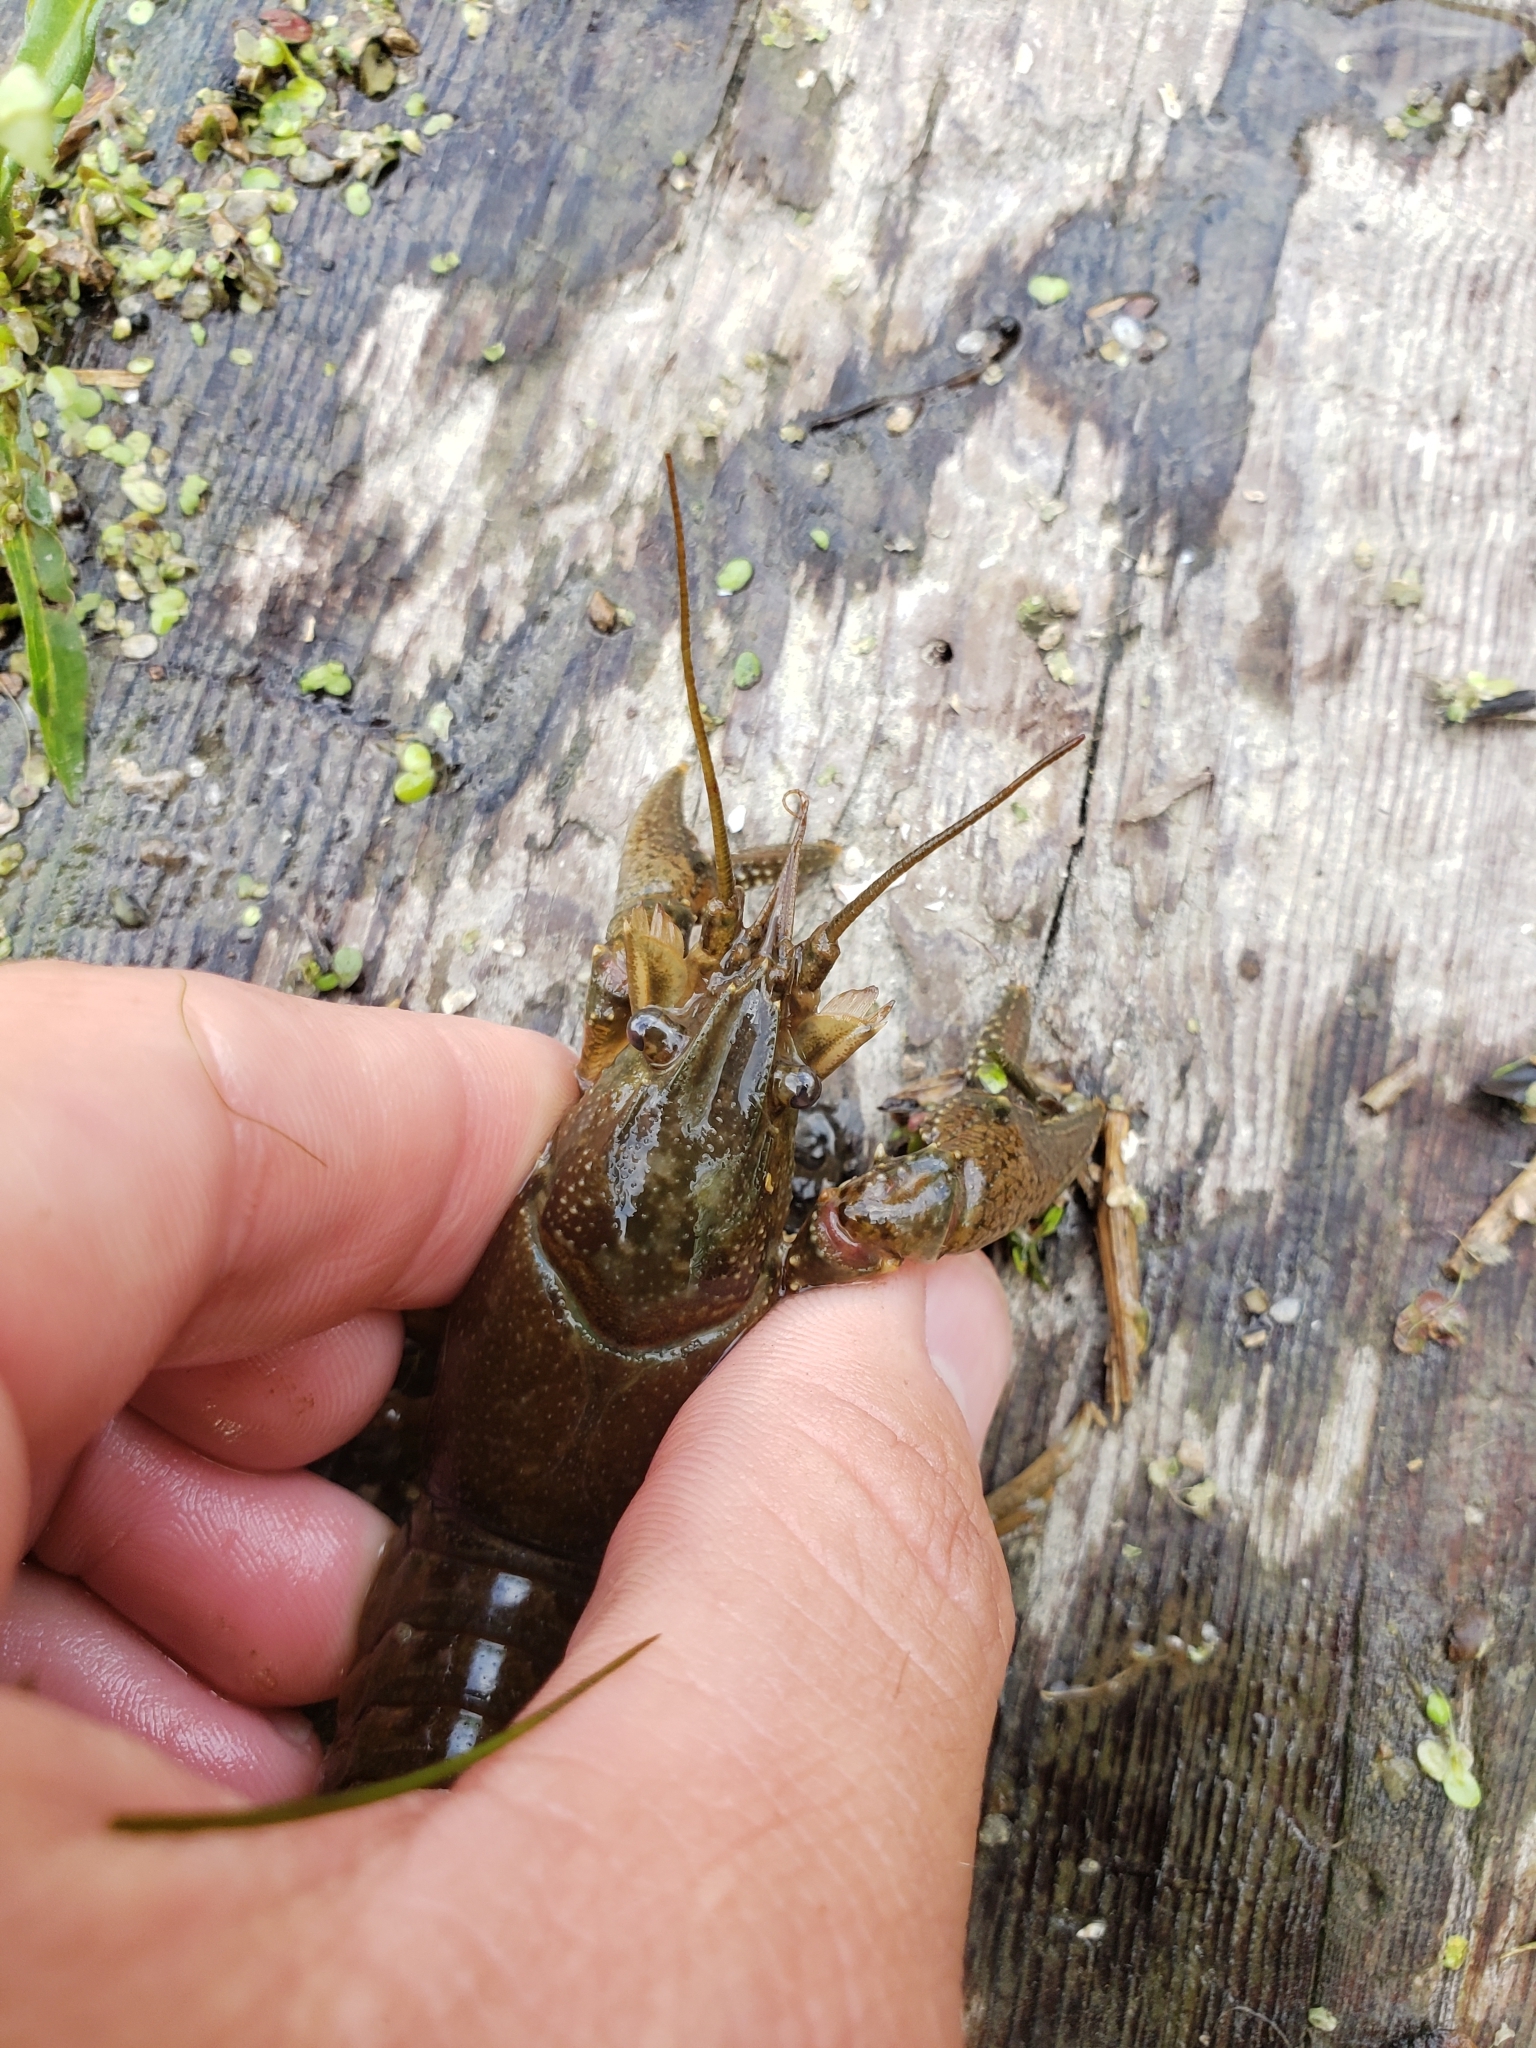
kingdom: Animalia
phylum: Arthropoda
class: Malacostraca
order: Decapoda
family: Cambaridae
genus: Faxonius
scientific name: Faxonius propinquus
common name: Northern clearwater crayfish
